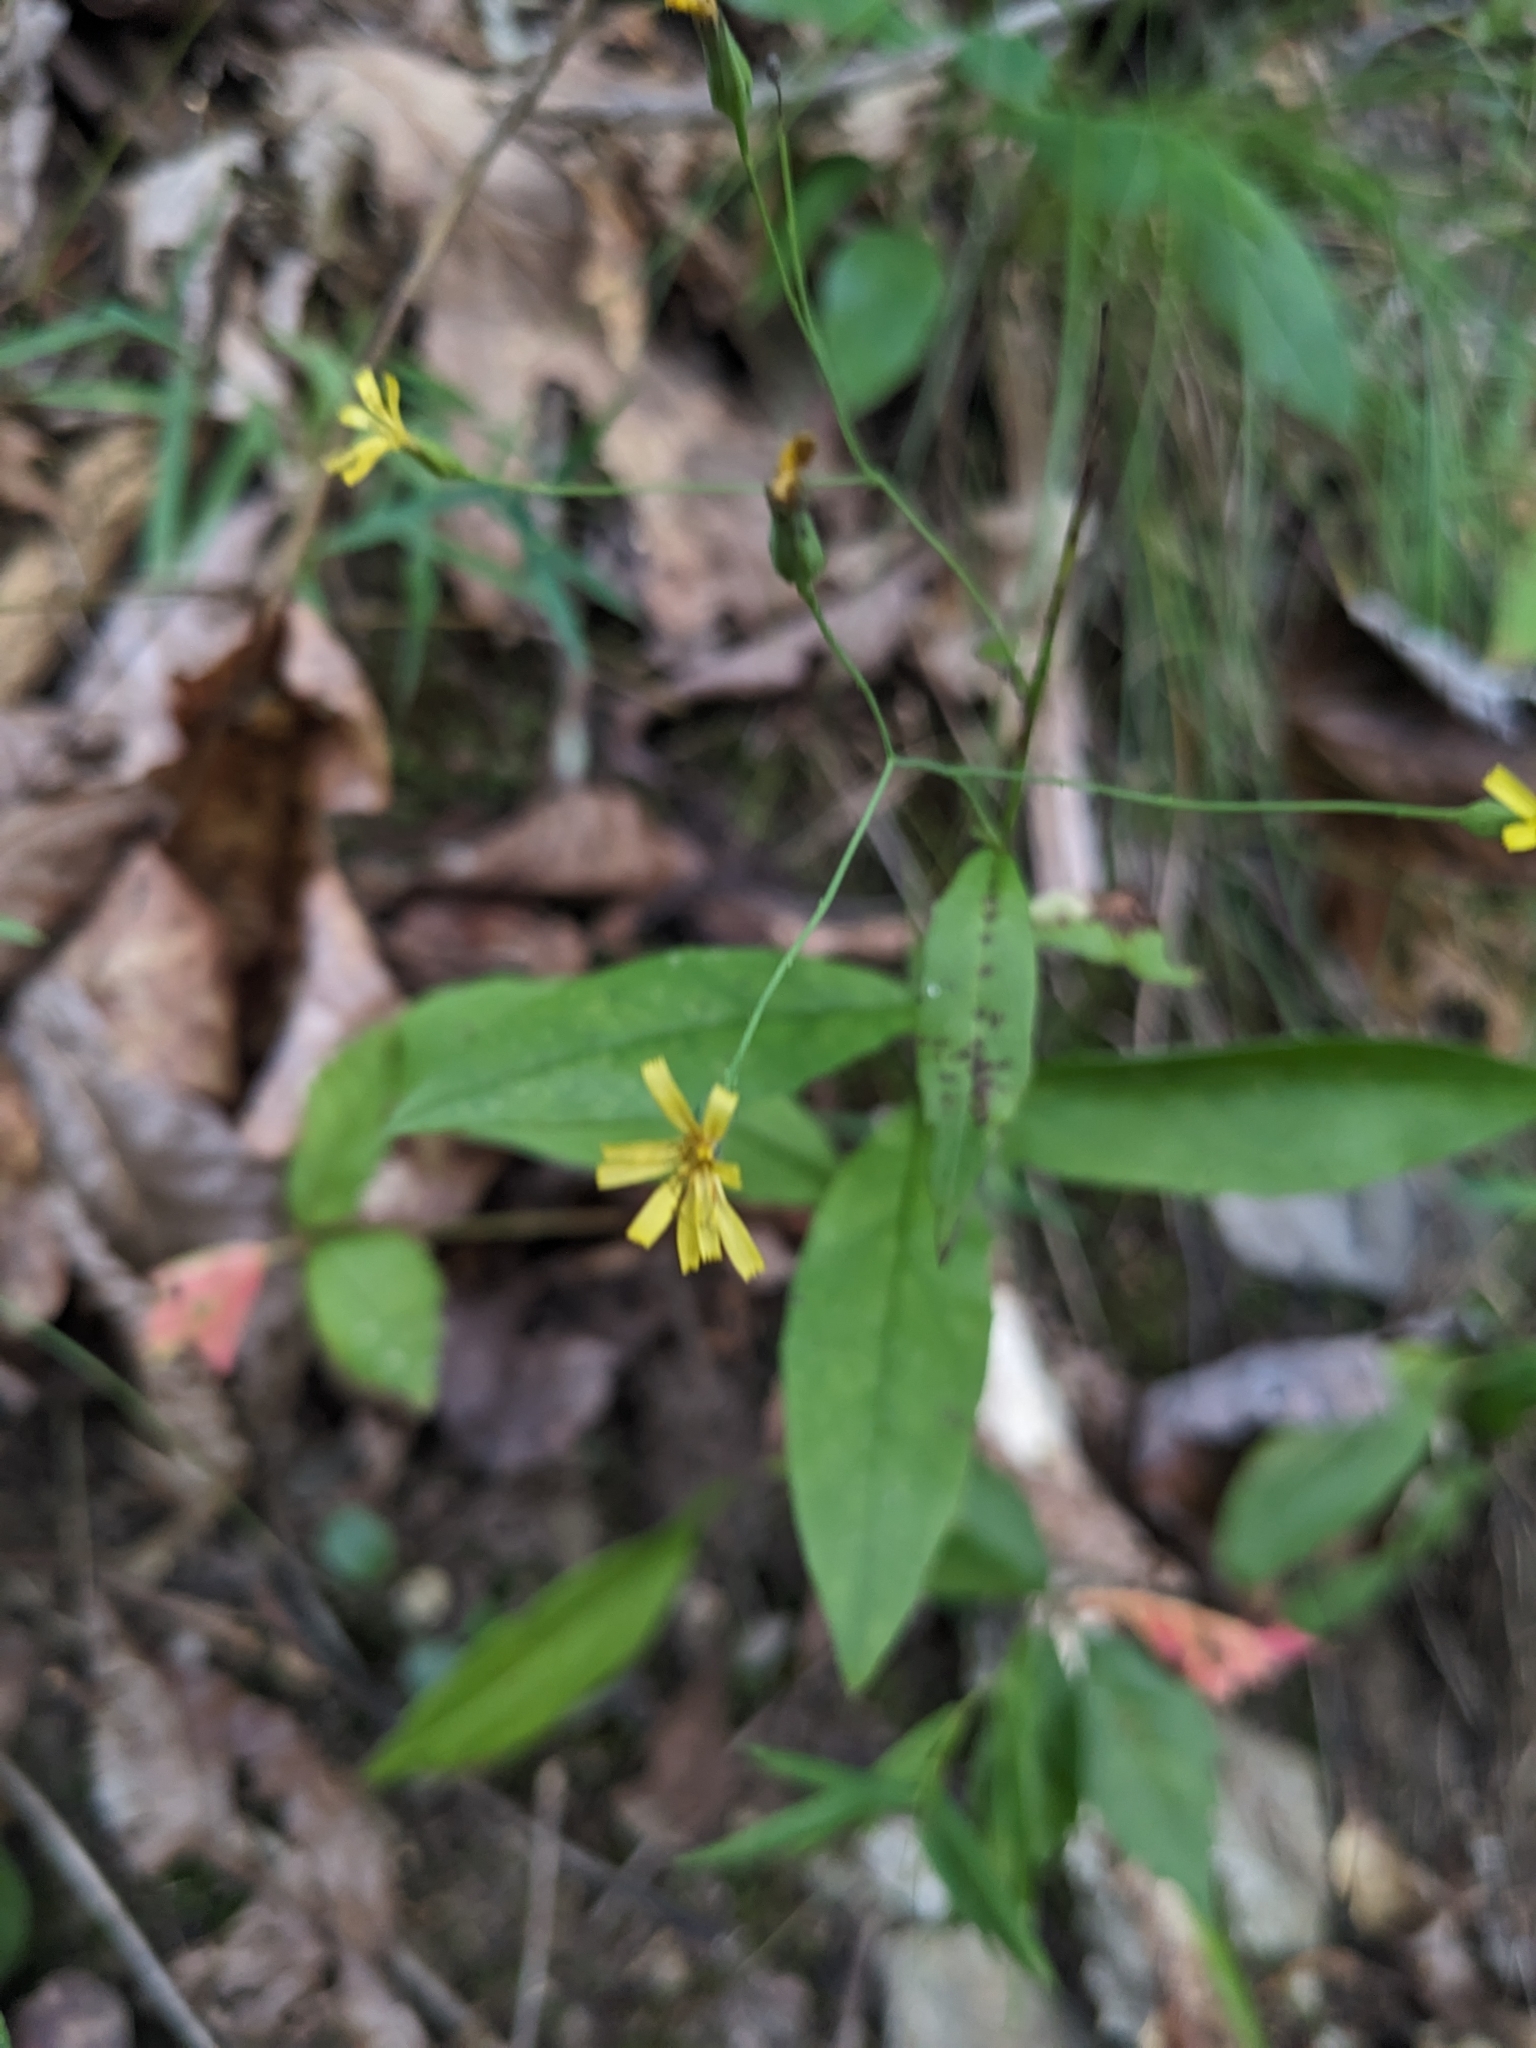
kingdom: Plantae
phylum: Tracheophyta
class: Magnoliopsida
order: Asterales
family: Asteraceae
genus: Hieracium
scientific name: Hieracium paniculatum
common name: Allegheny hawkweed
